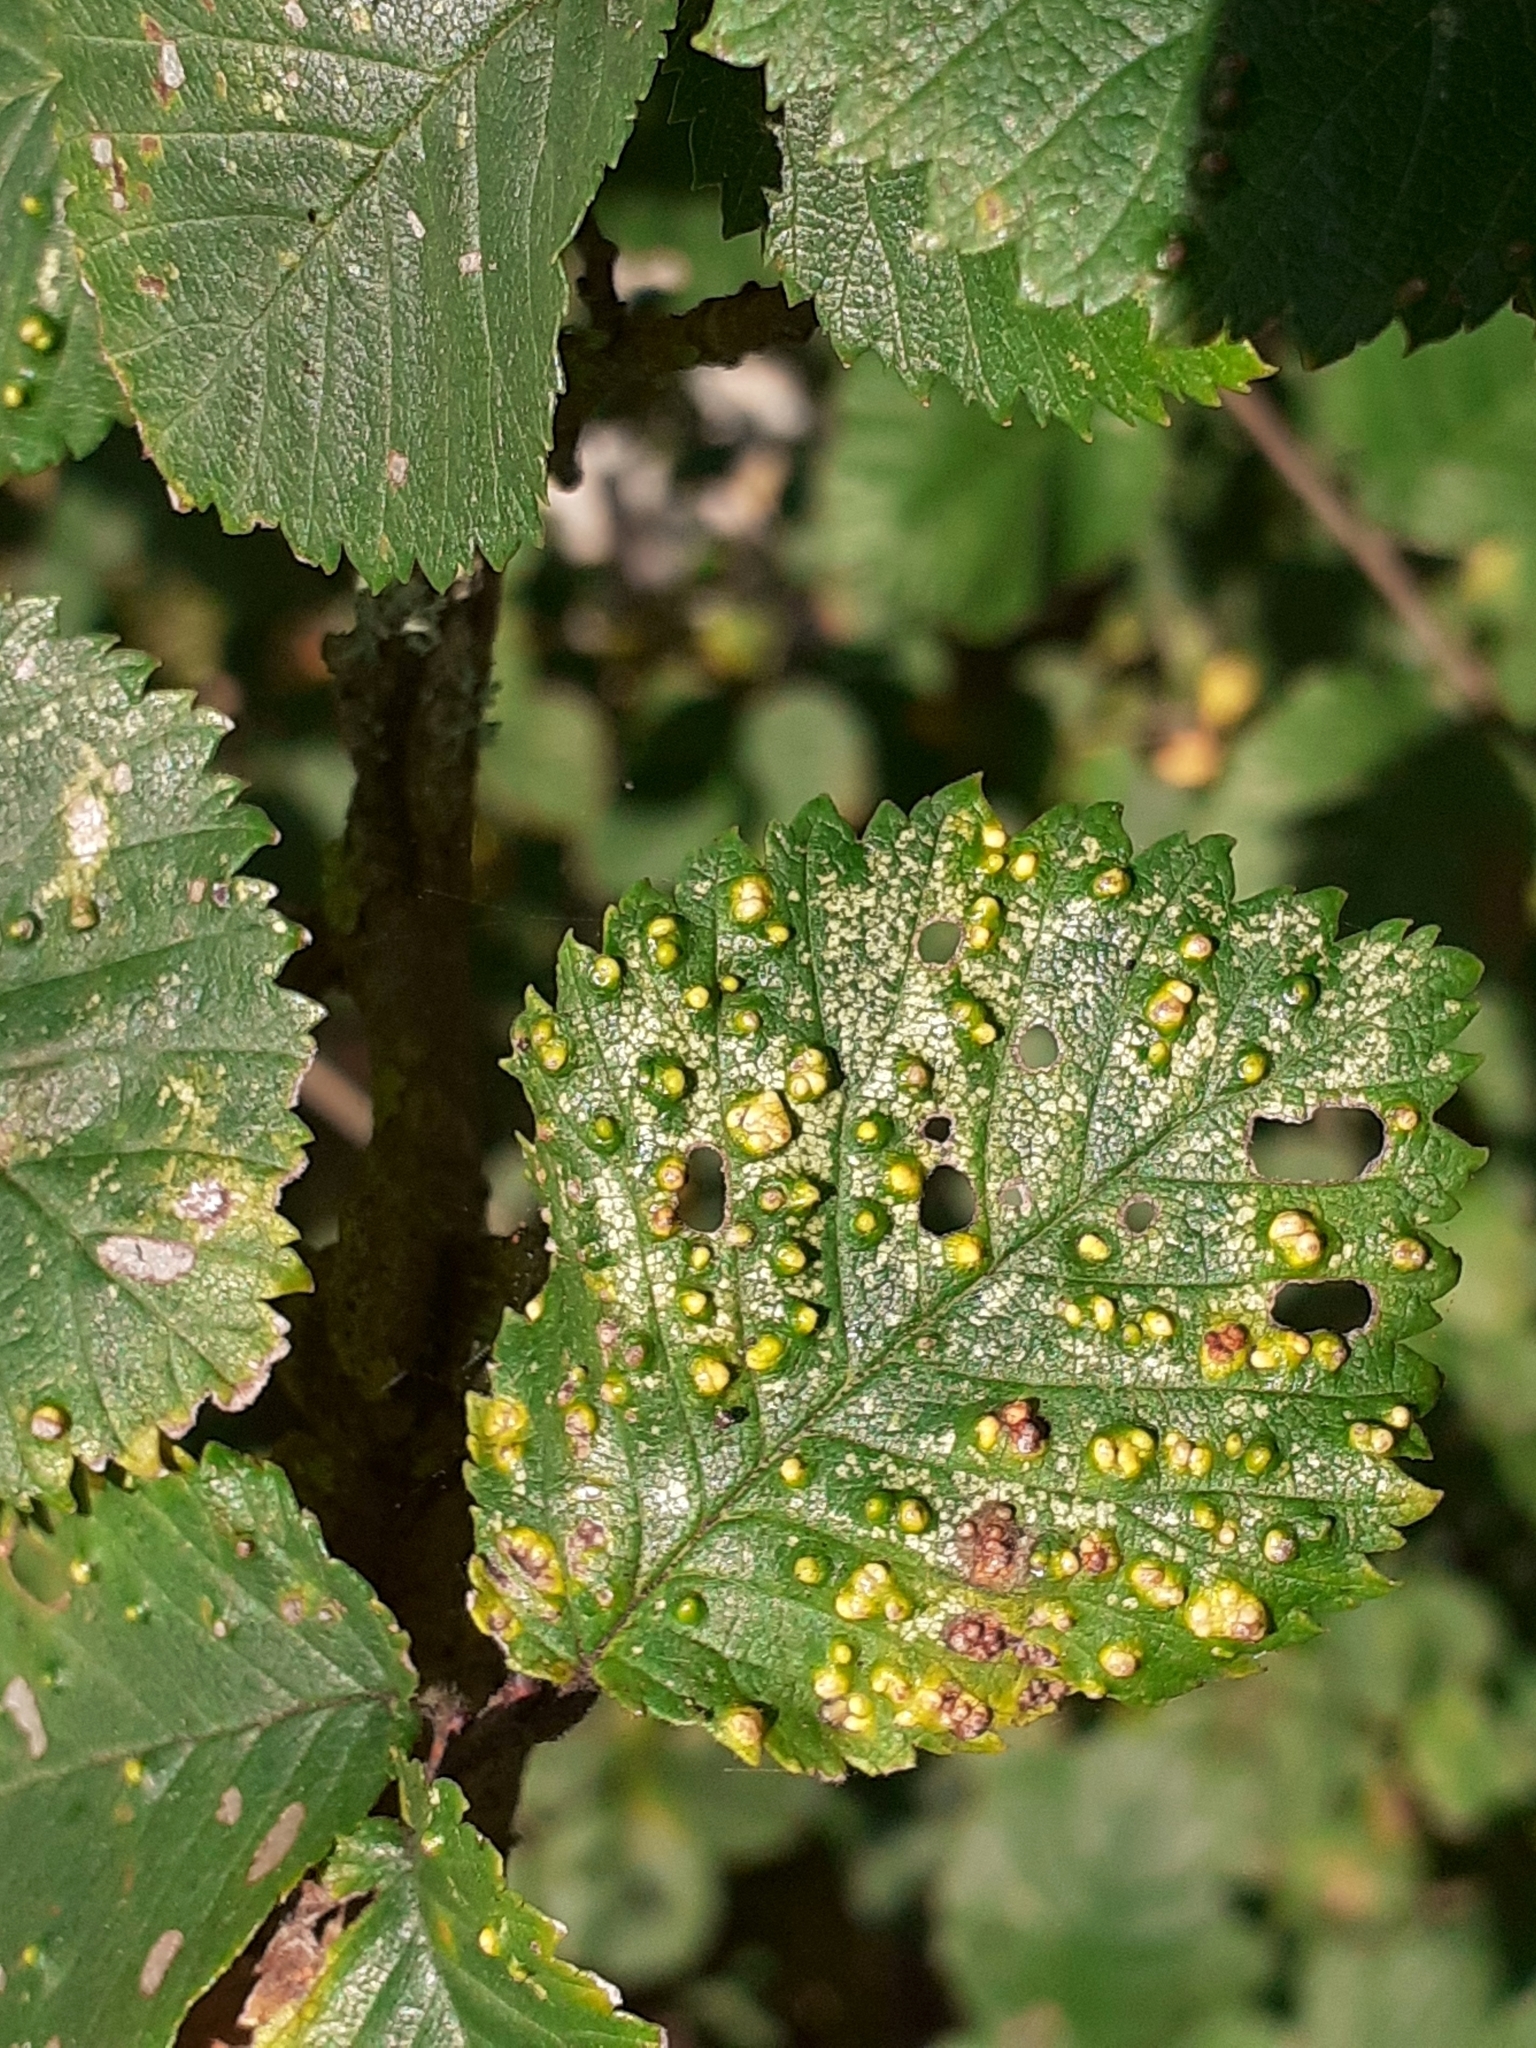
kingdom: Animalia
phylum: Arthropoda
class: Arachnida
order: Trombidiformes
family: Eriophyidae
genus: Aceria
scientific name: Aceria brevipunctata
